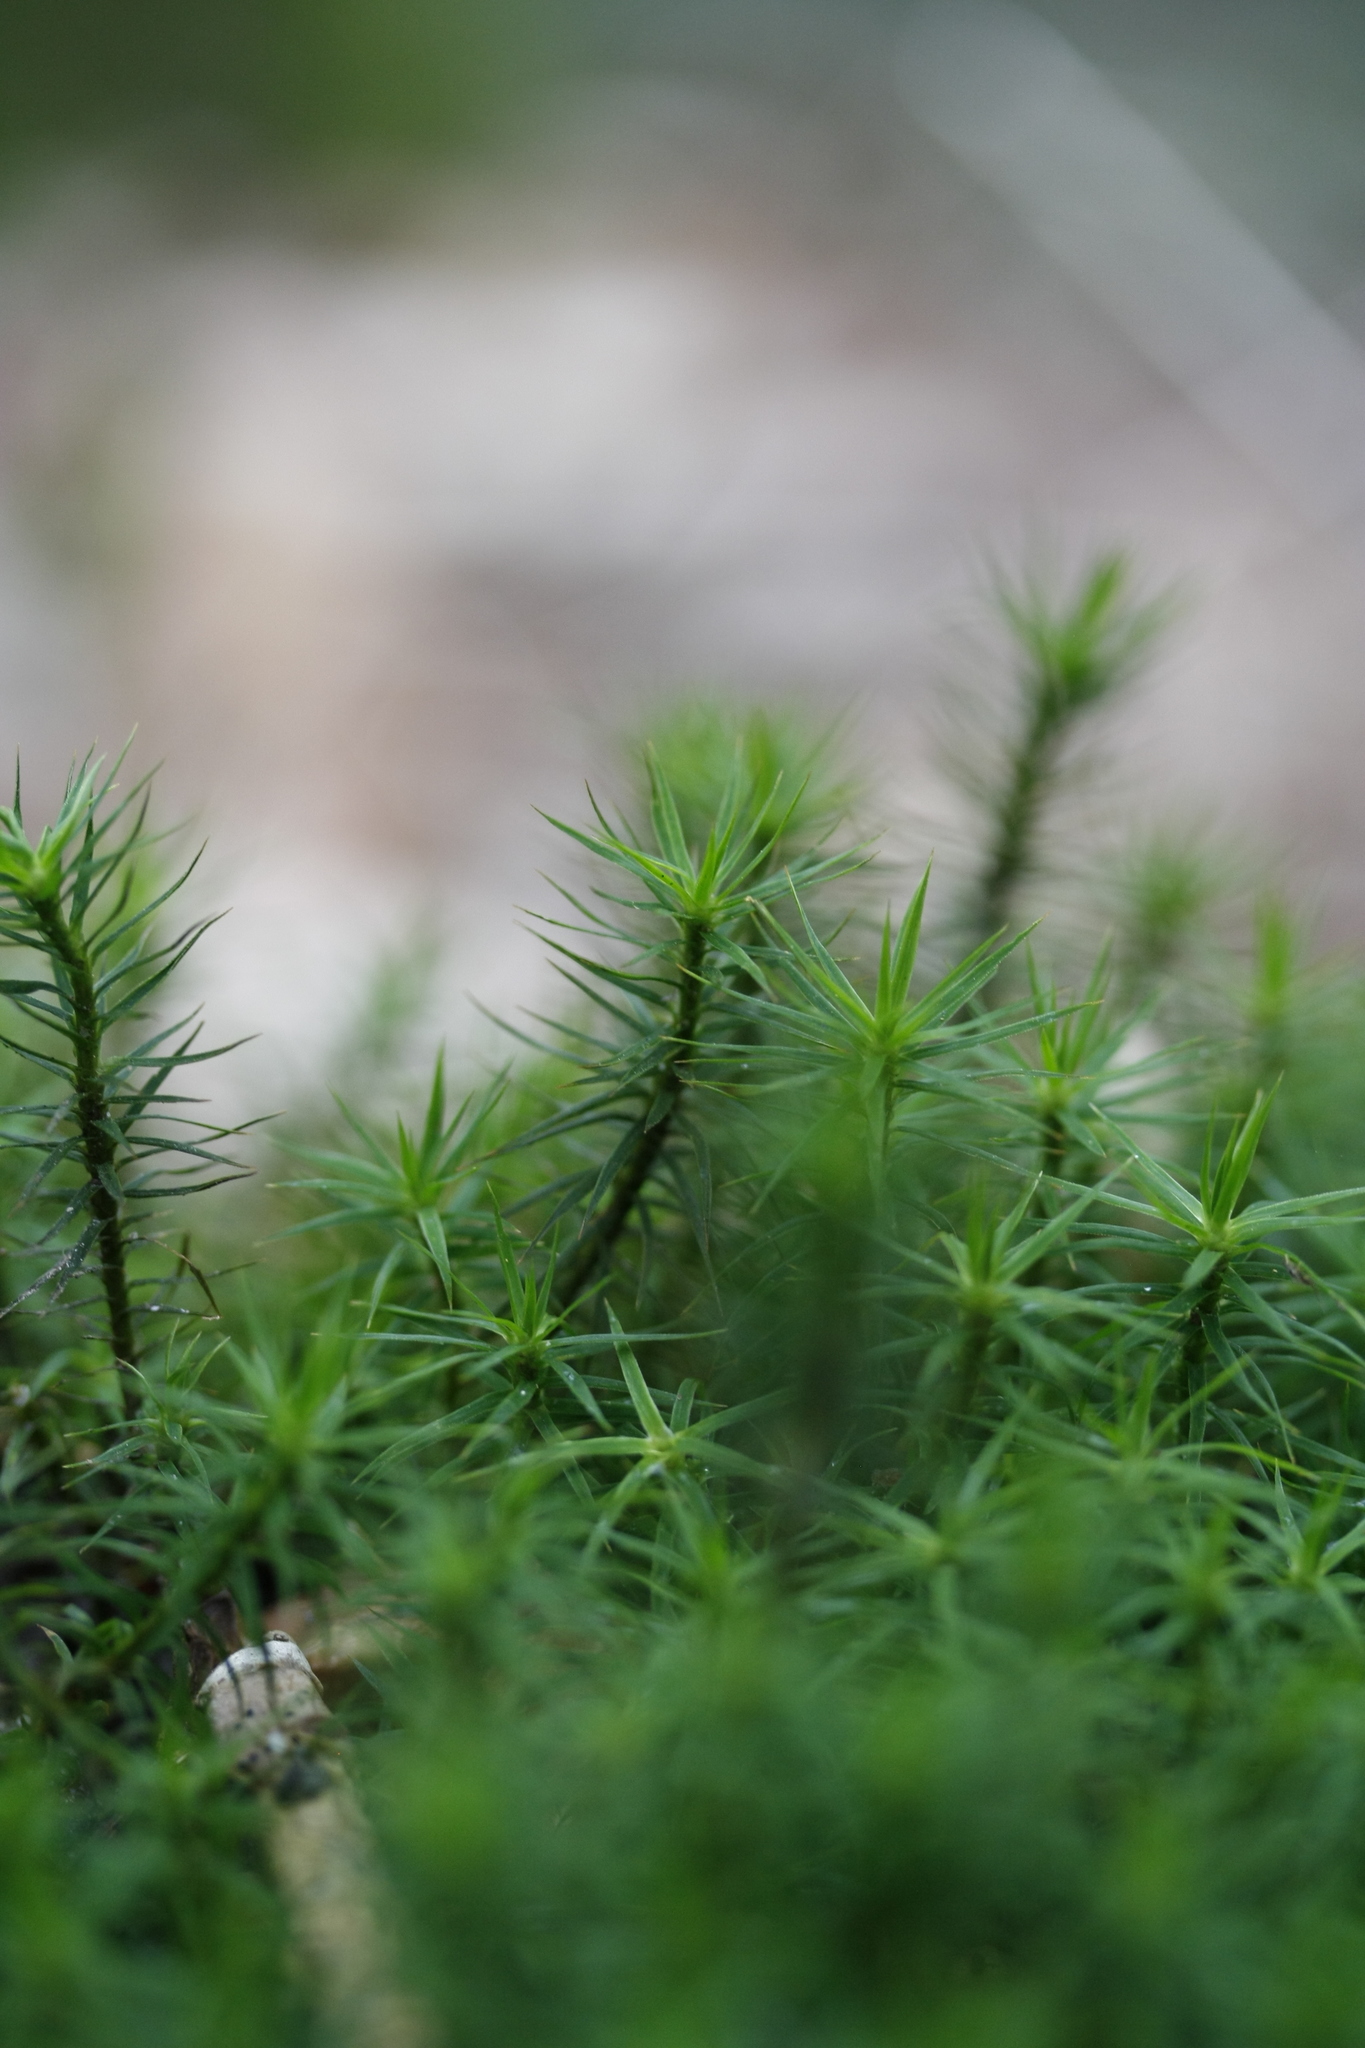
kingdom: Plantae
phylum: Bryophyta
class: Polytrichopsida
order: Polytrichales
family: Polytrichaceae
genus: Polytrichum
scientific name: Polytrichum formosum
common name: Bank haircap moss
